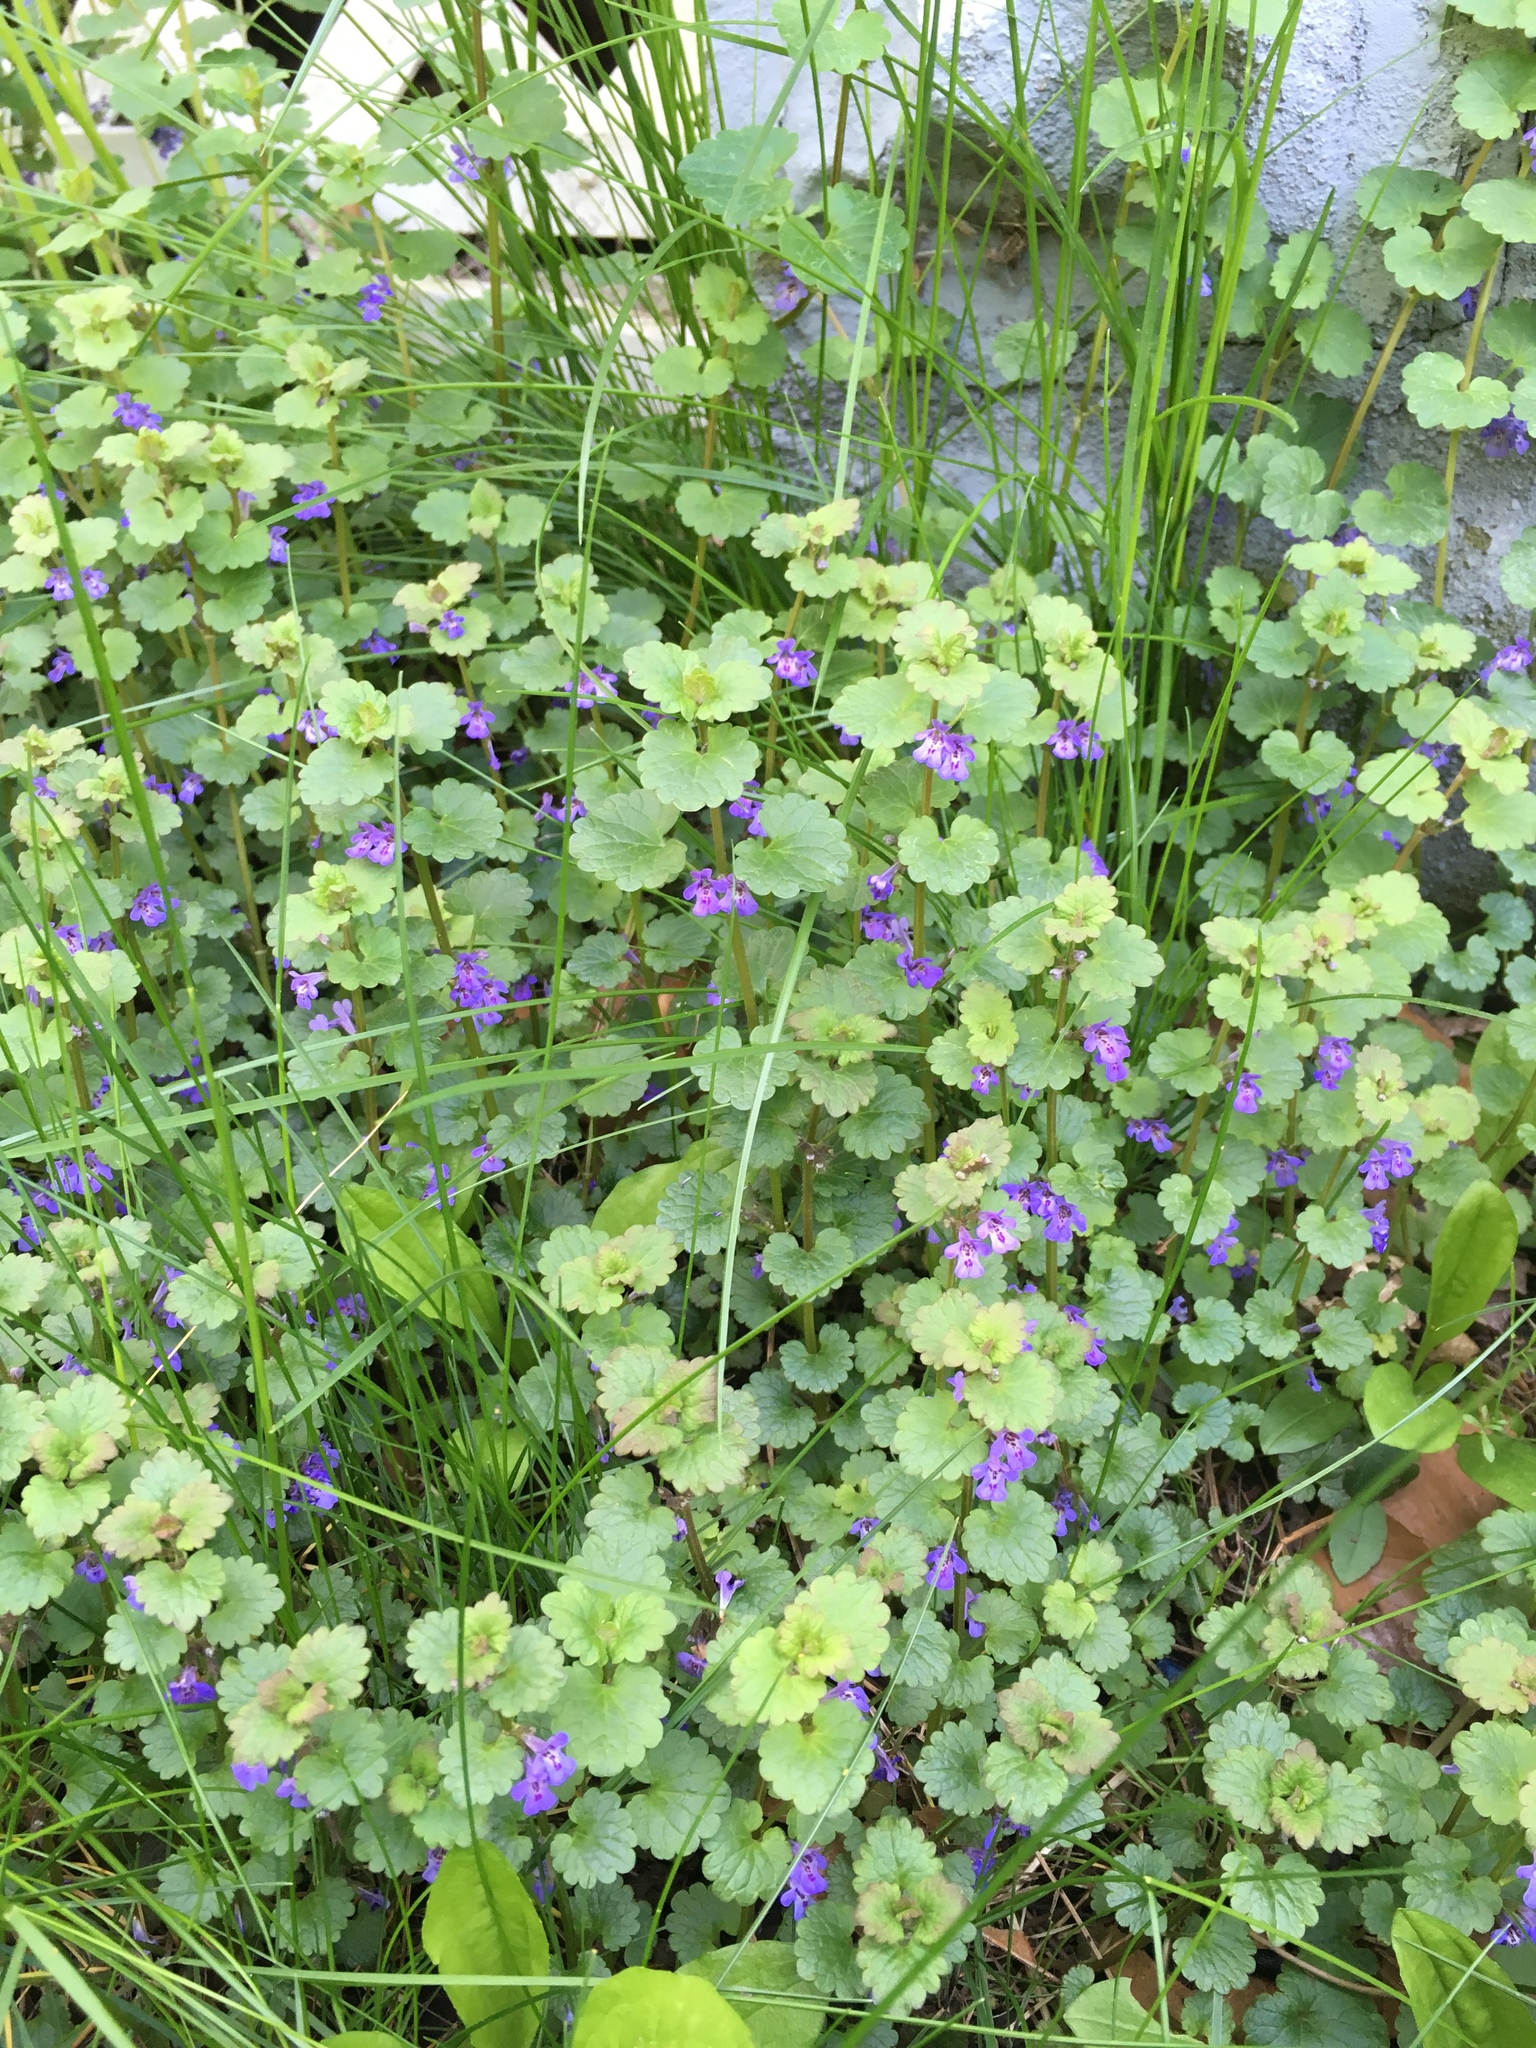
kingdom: Plantae
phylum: Tracheophyta
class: Magnoliopsida
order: Lamiales
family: Lamiaceae
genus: Glechoma
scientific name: Glechoma hederacea
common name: Ground ivy
